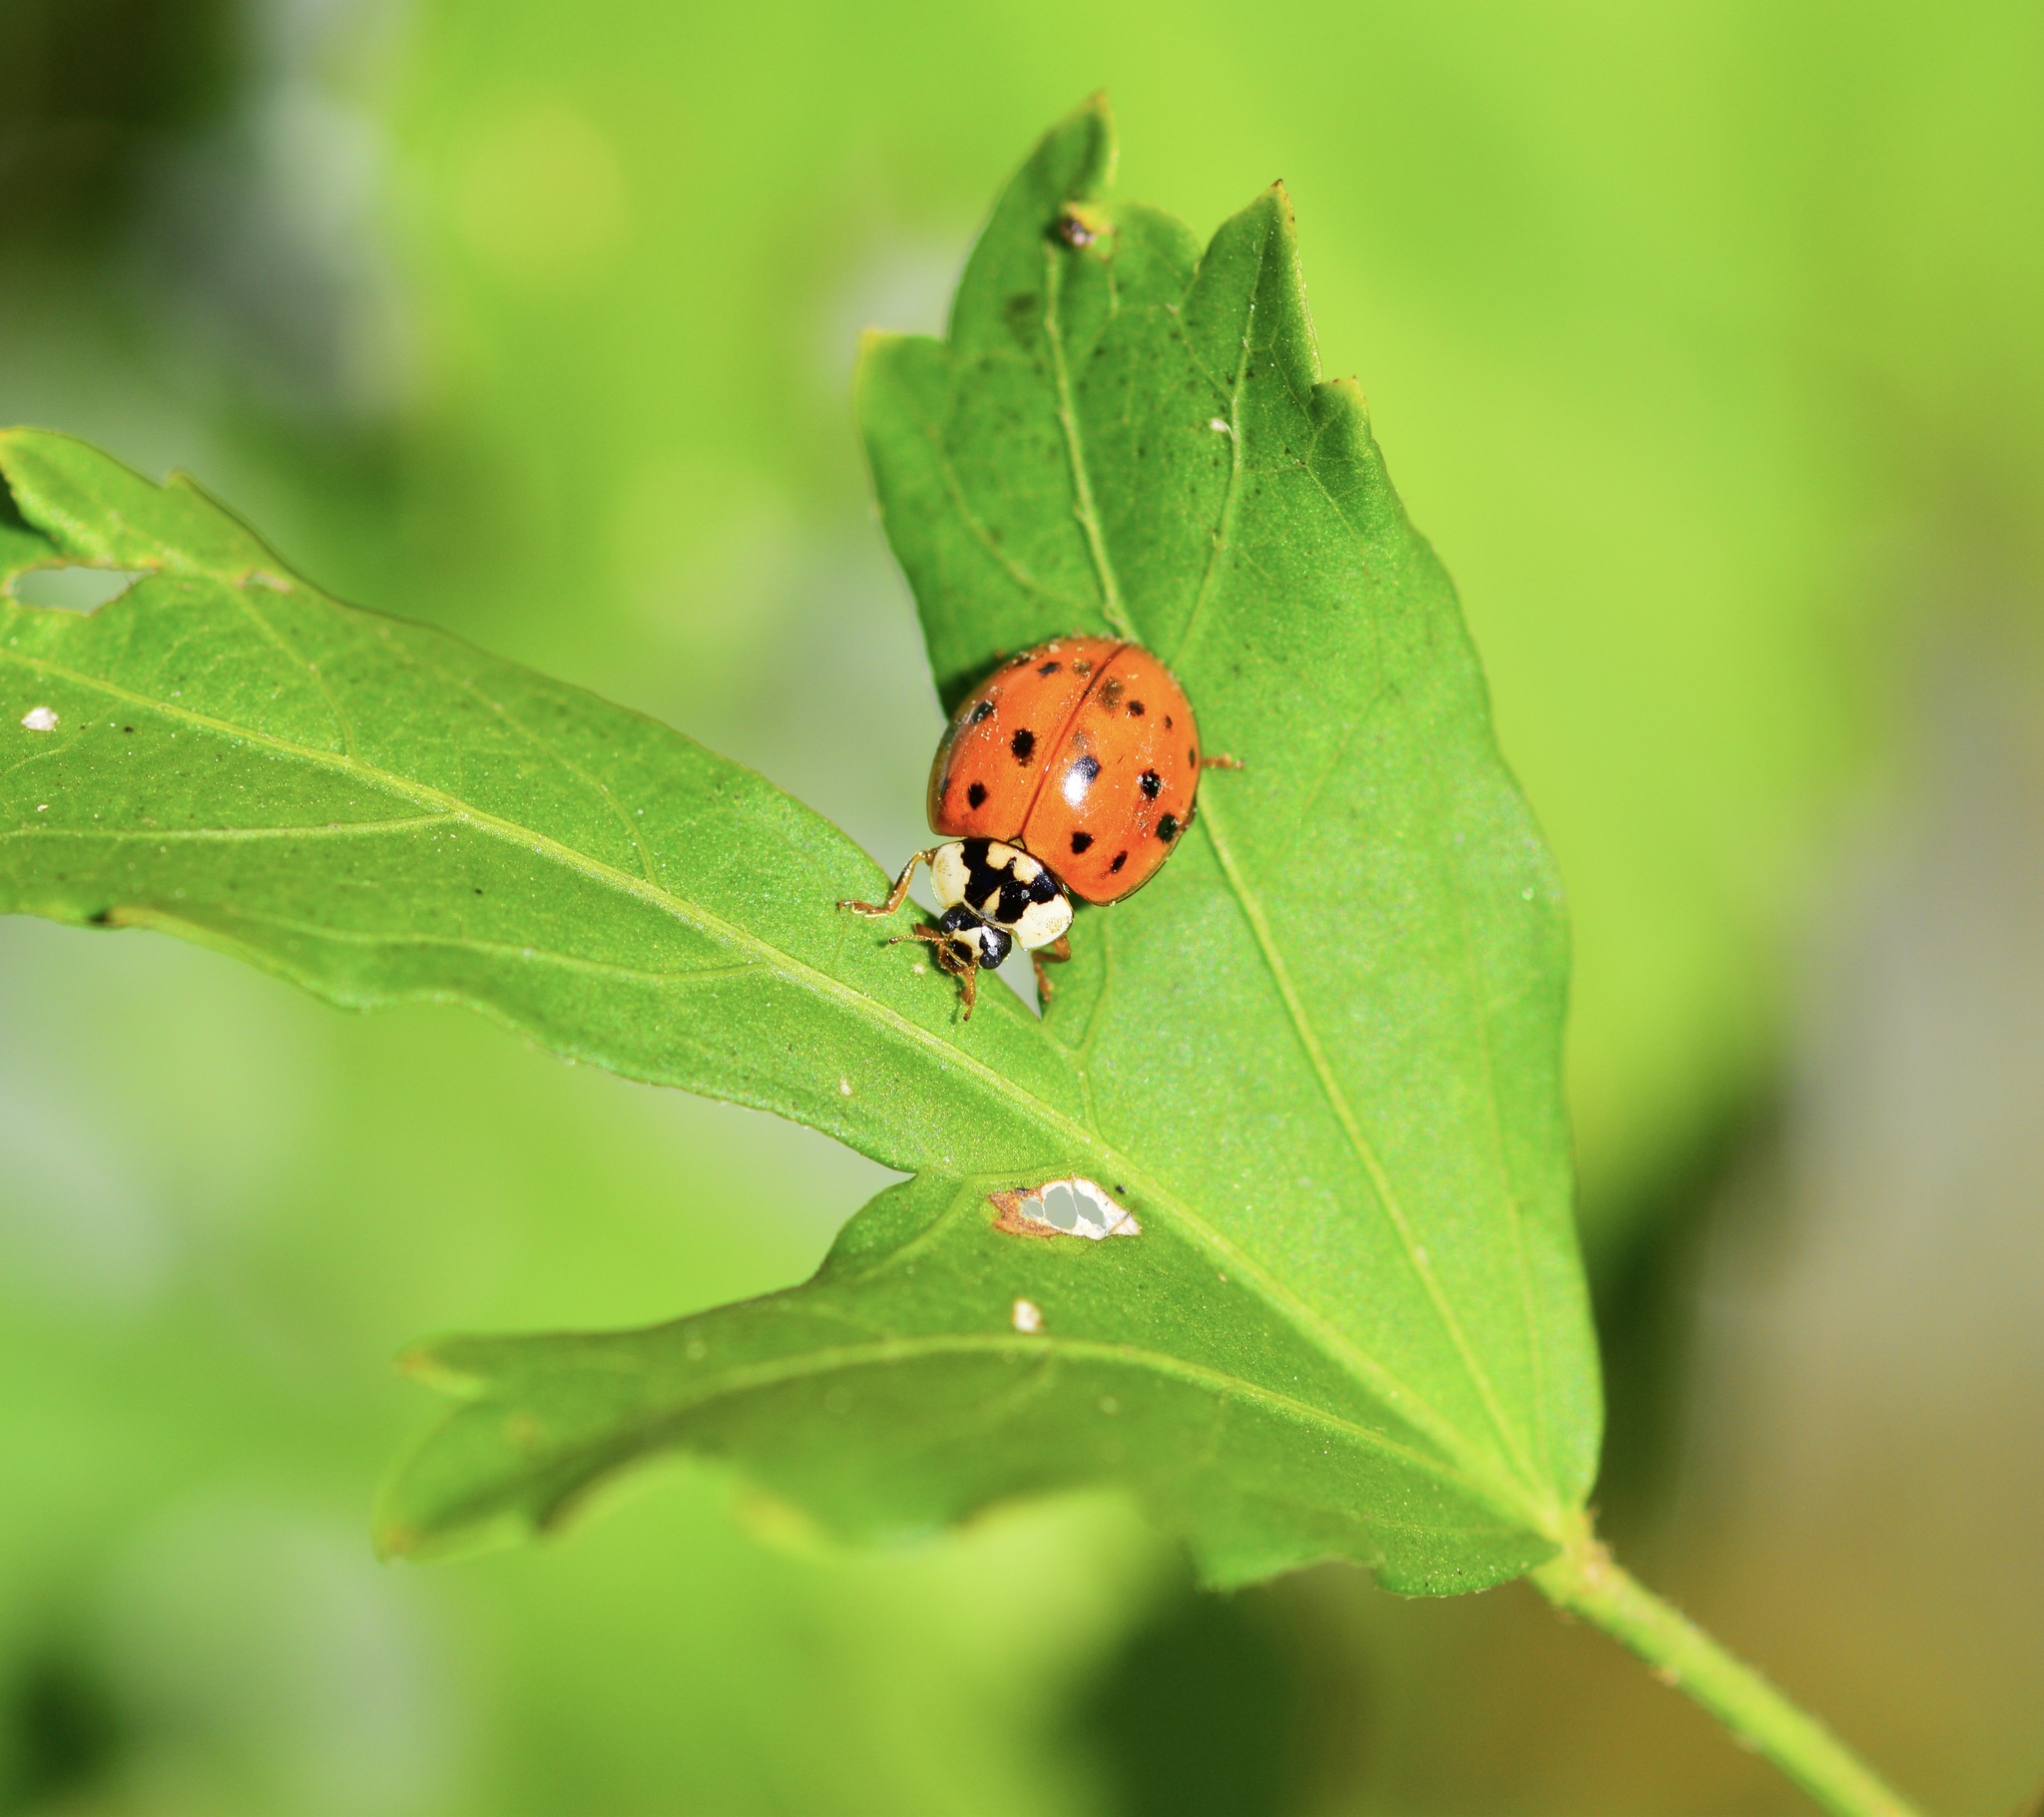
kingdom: Animalia
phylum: Arthropoda
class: Insecta
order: Coleoptera
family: Coccinellidae
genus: Harmonia
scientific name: Harmonia axyridis
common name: Harlequin ladybird
